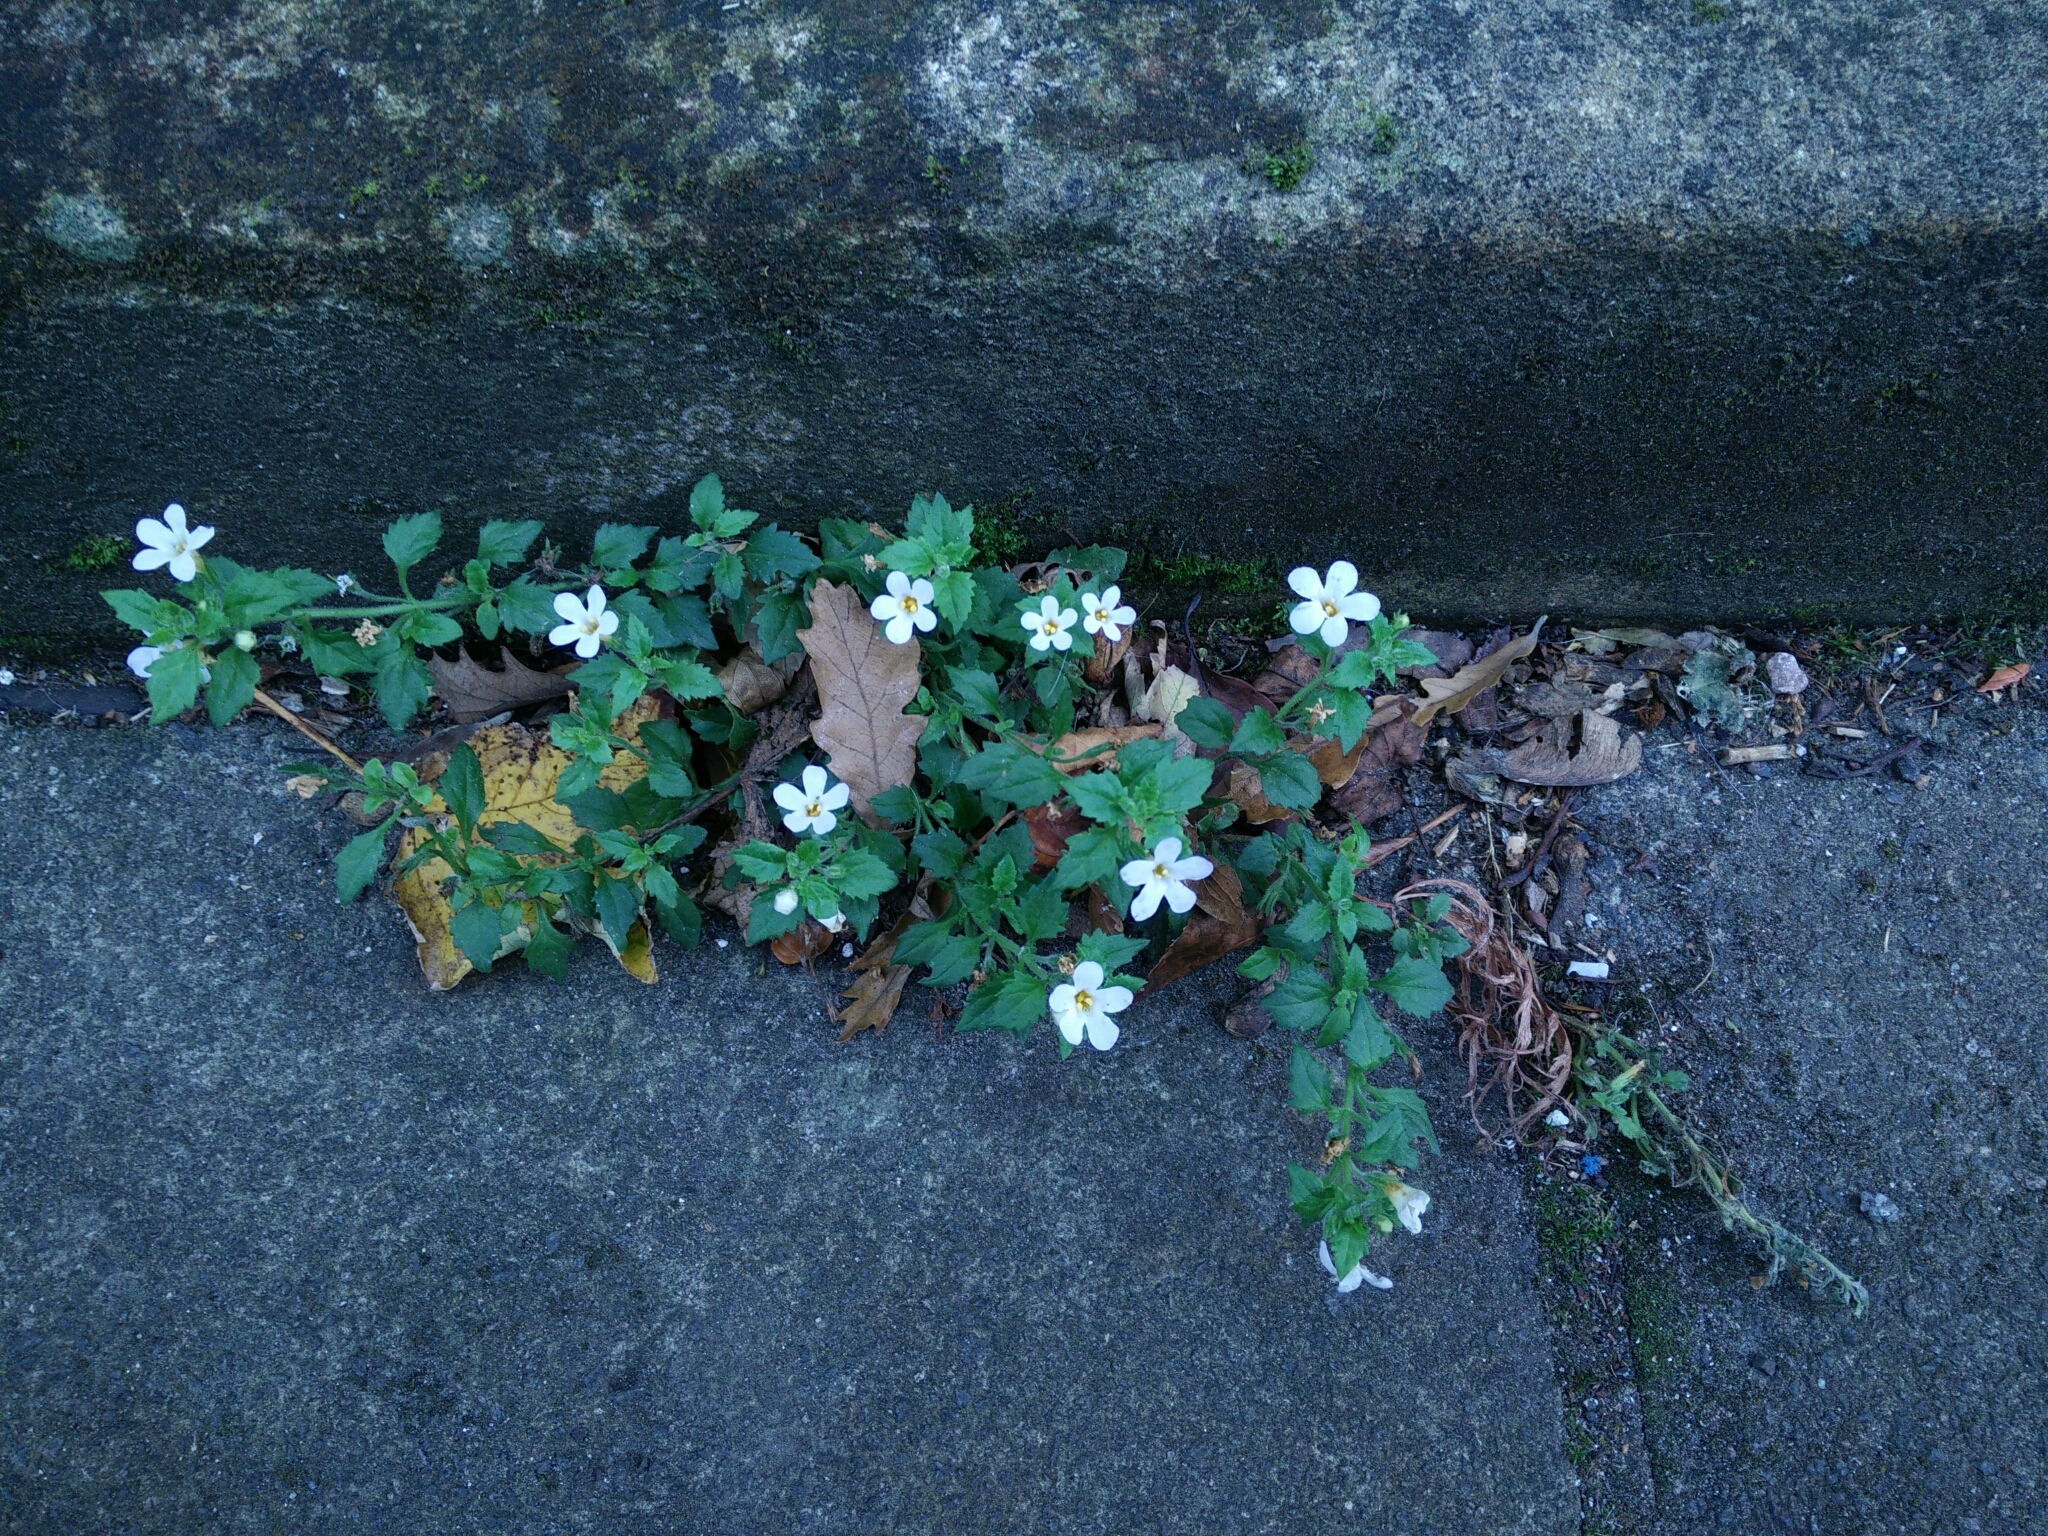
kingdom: Plantae
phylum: Tracheophyta
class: Magnoliopsida
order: Lamiales
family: Scrophulariaceae
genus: Chaenostoma
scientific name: Chaenostoma cordatum
